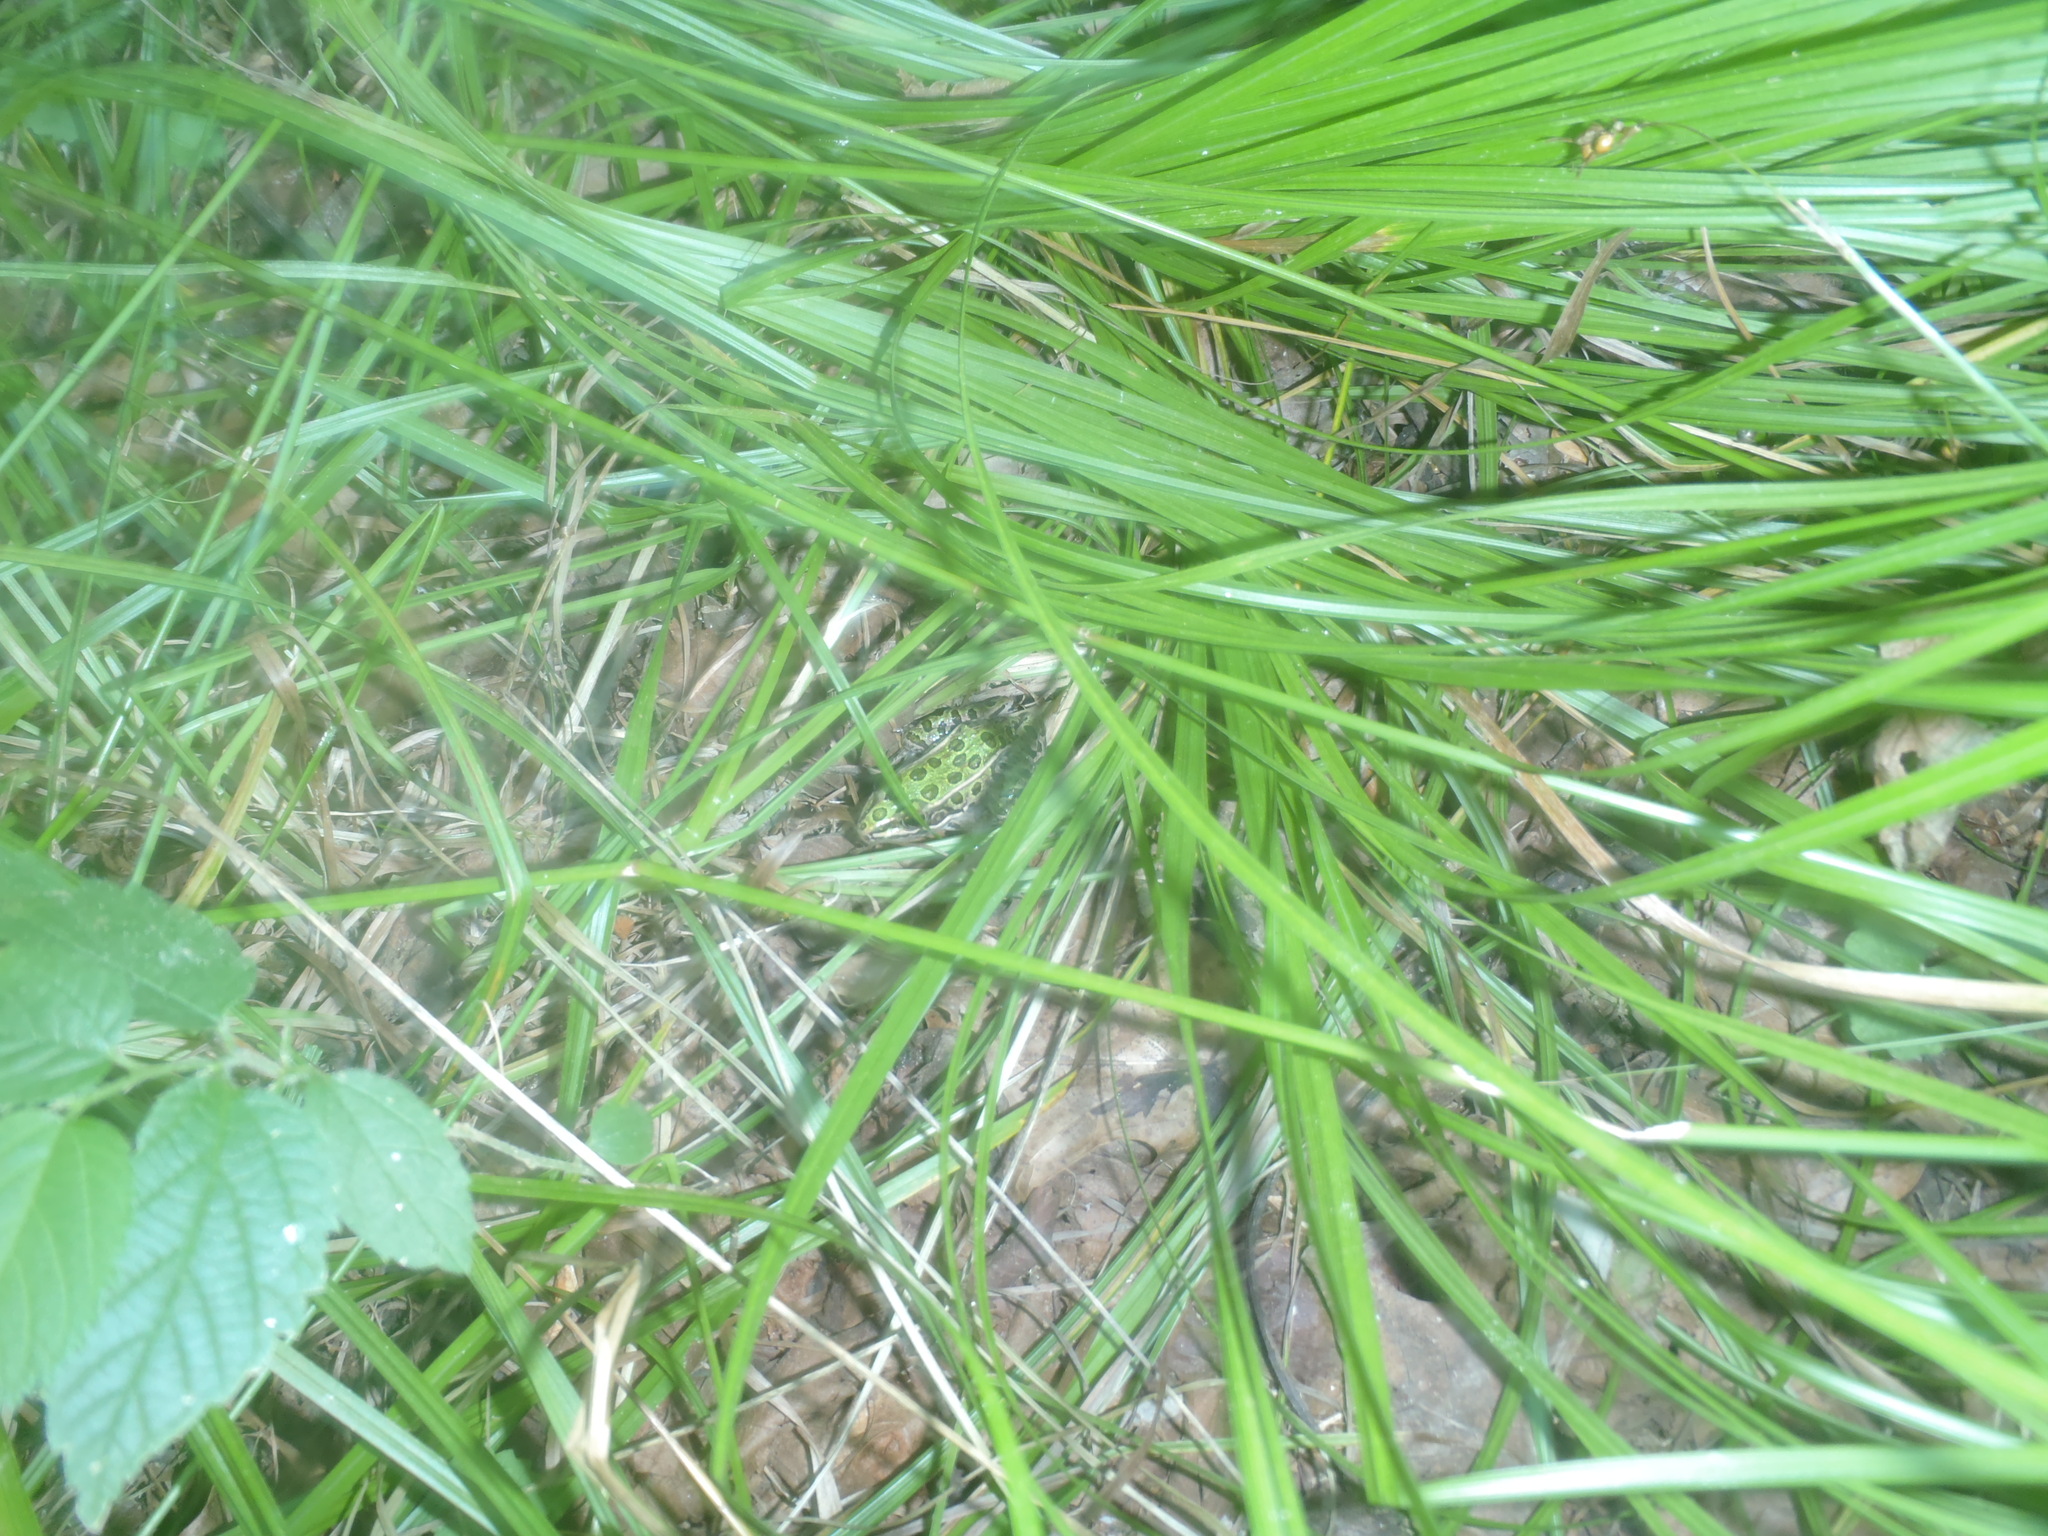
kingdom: Animalia
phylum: Chordata
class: Amphibia
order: Anura
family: Ranidae
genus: Lithobates
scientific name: Lithobates pipiens
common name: Northern leopard frog
